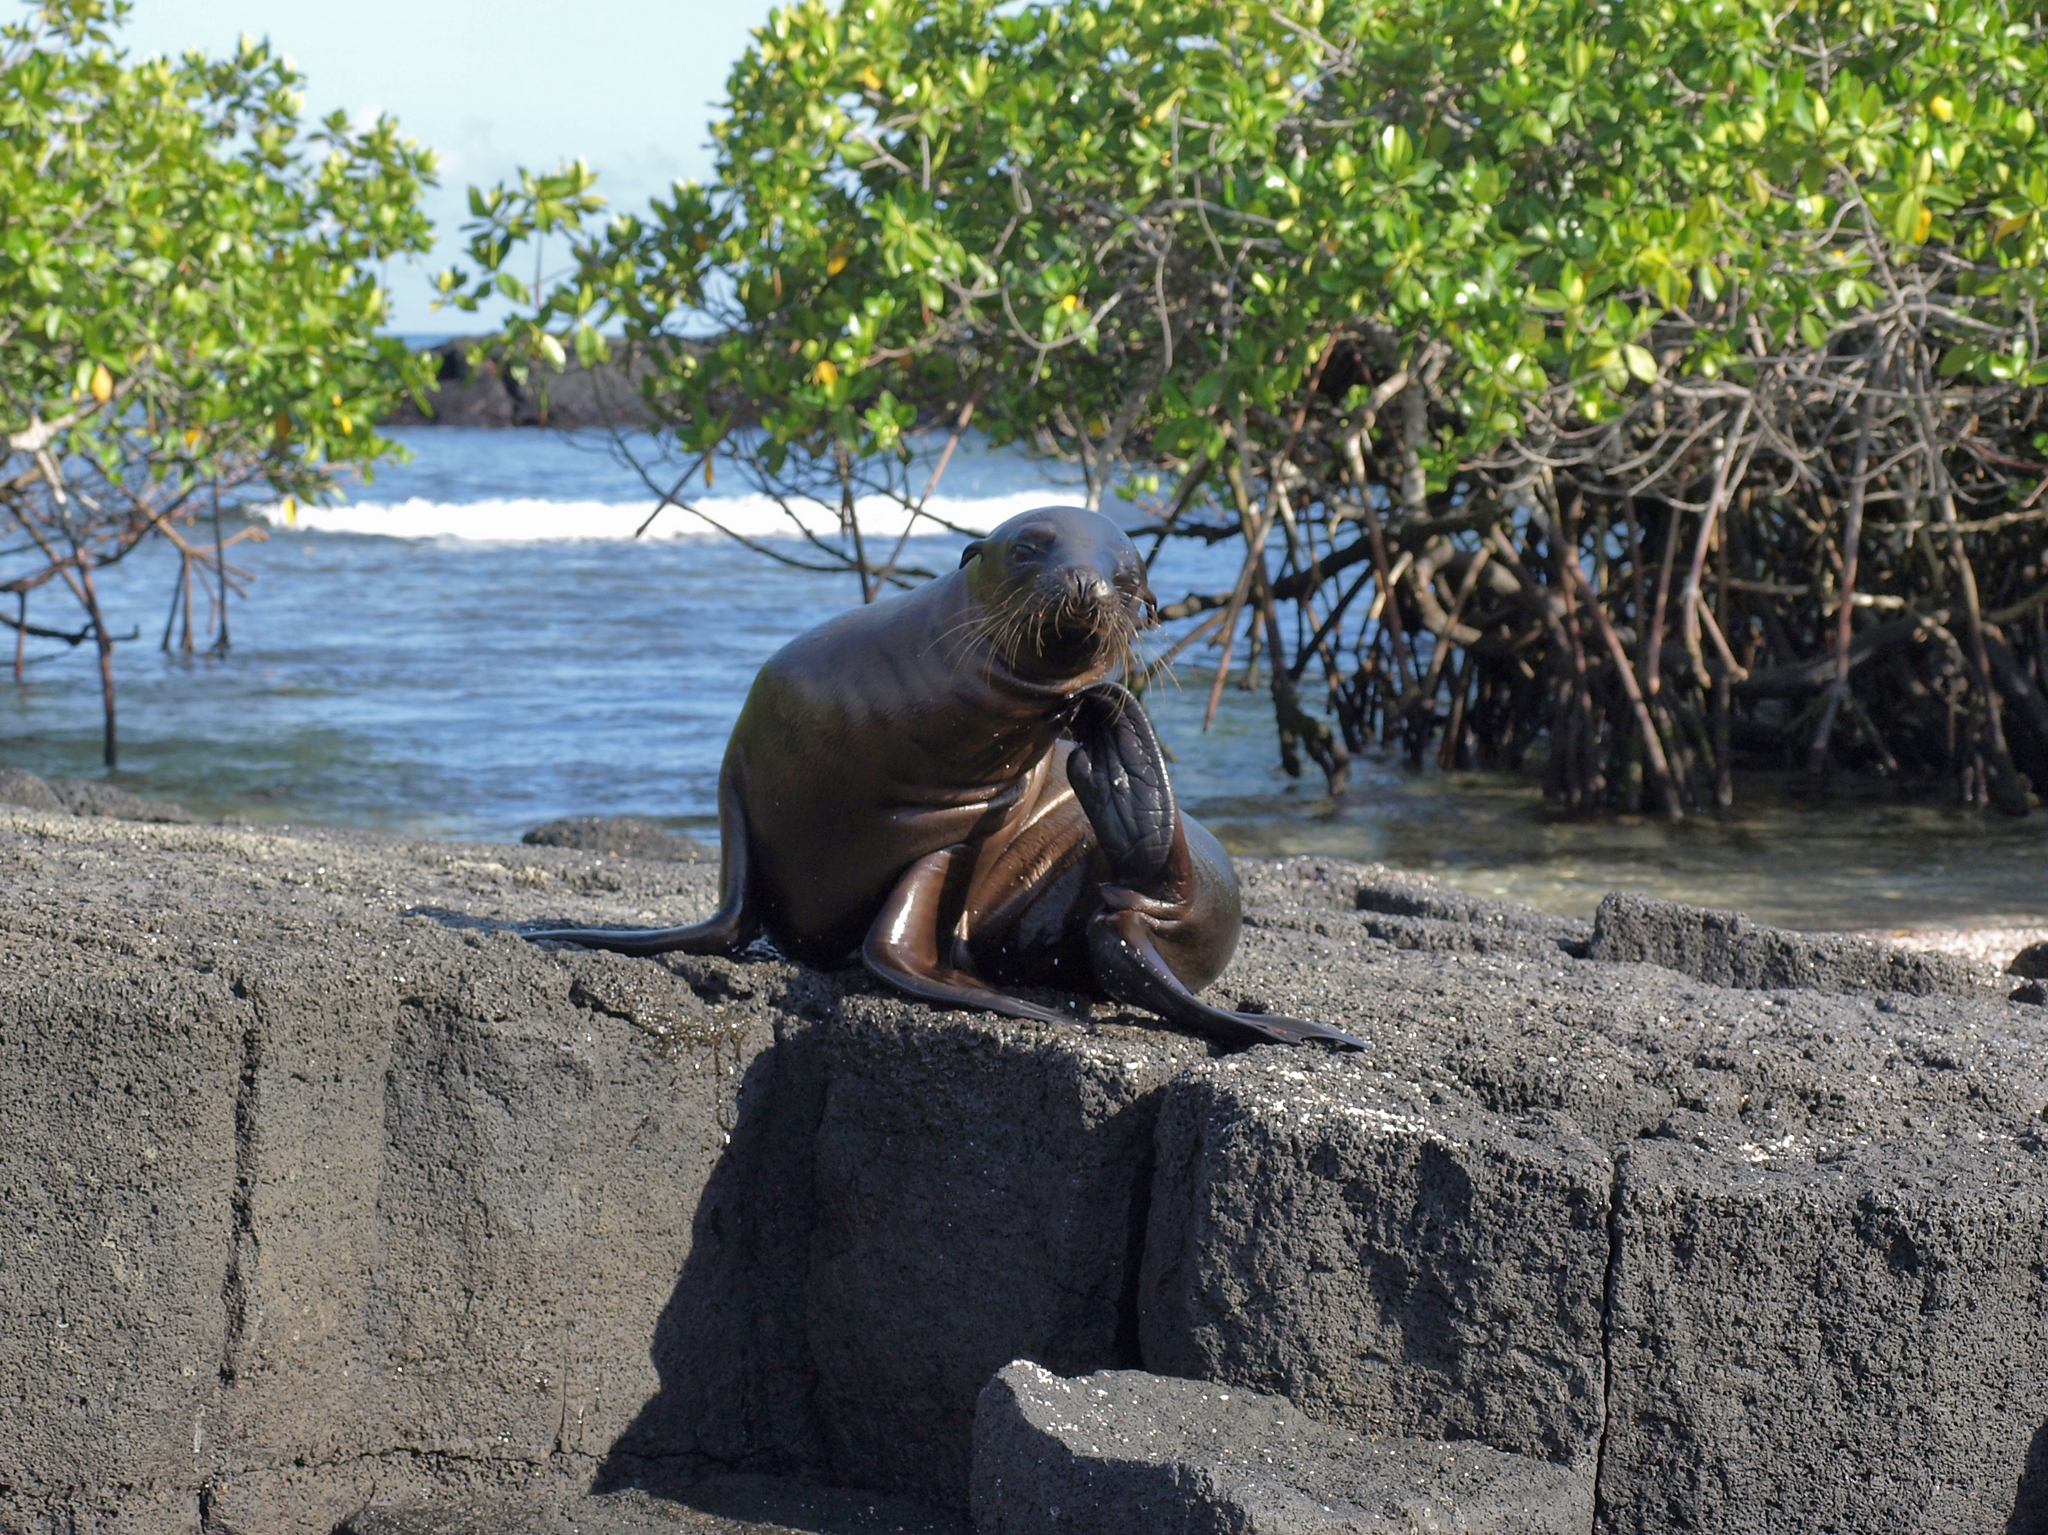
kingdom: Animalia
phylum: Chordata
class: Mammalia
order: Carnivora
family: Otariidae
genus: Zalophus
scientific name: Zalophus wollebaeki
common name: Galapagos sea lion
